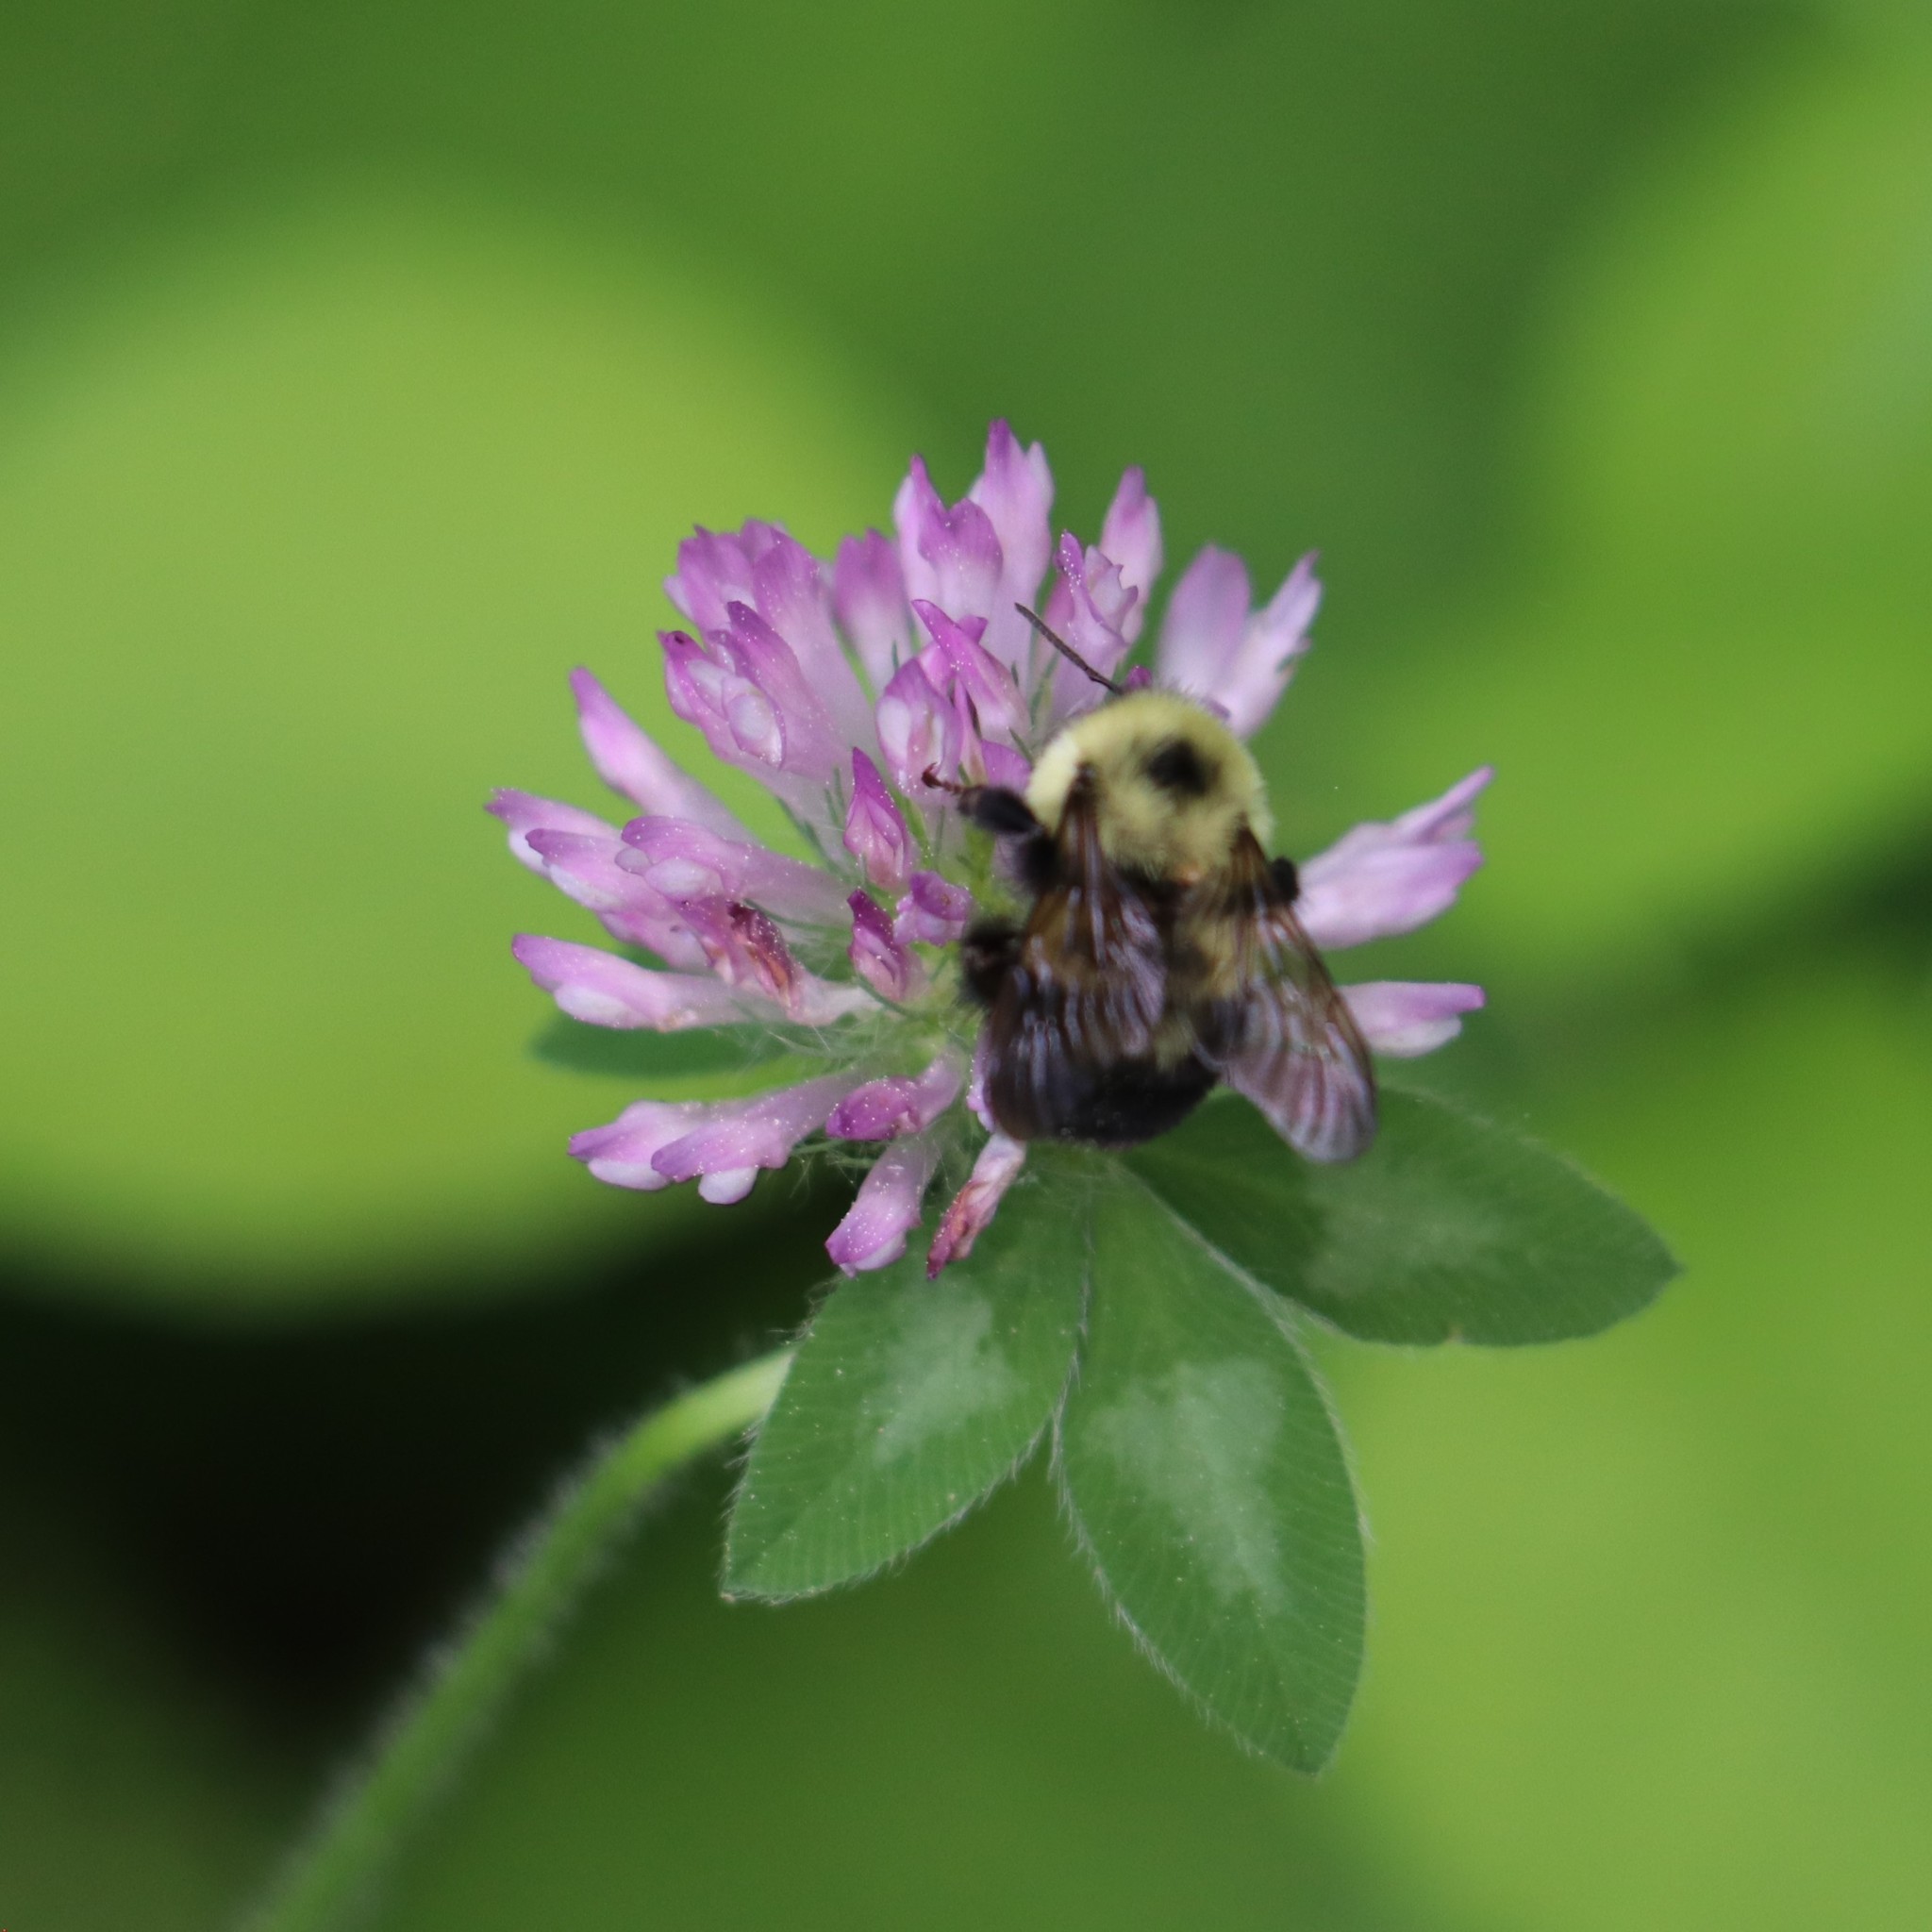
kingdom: Animalia
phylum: Arthropoda
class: Insecta
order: Hymenoptera
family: Apidae
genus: Bombus
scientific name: Bombus bimaculatus
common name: Two-spotted bumble bee
